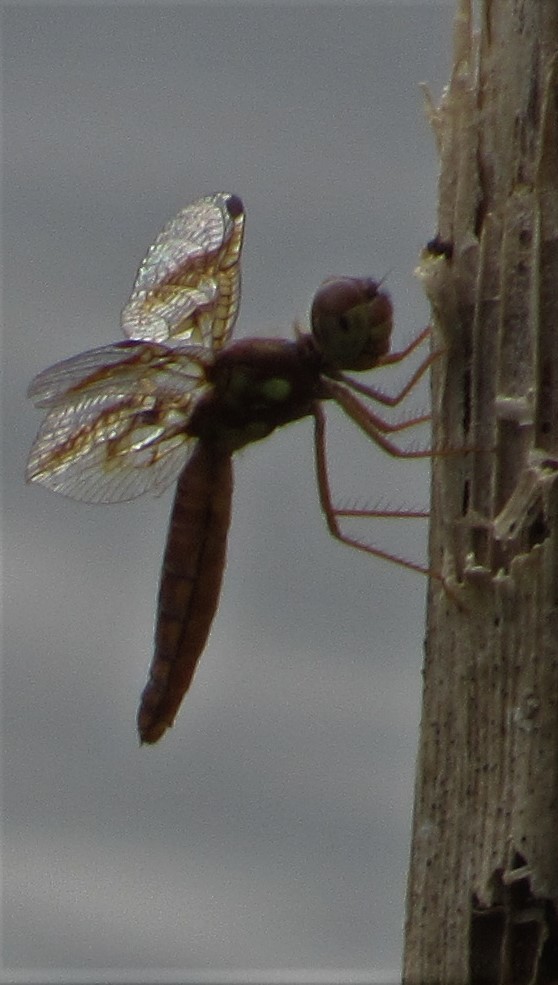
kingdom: Animalia
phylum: Arthropoda
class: Insecta
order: Odonata
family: Libellulidae
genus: Perithemis
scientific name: Perithemis tenera
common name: Eastern amberwing
